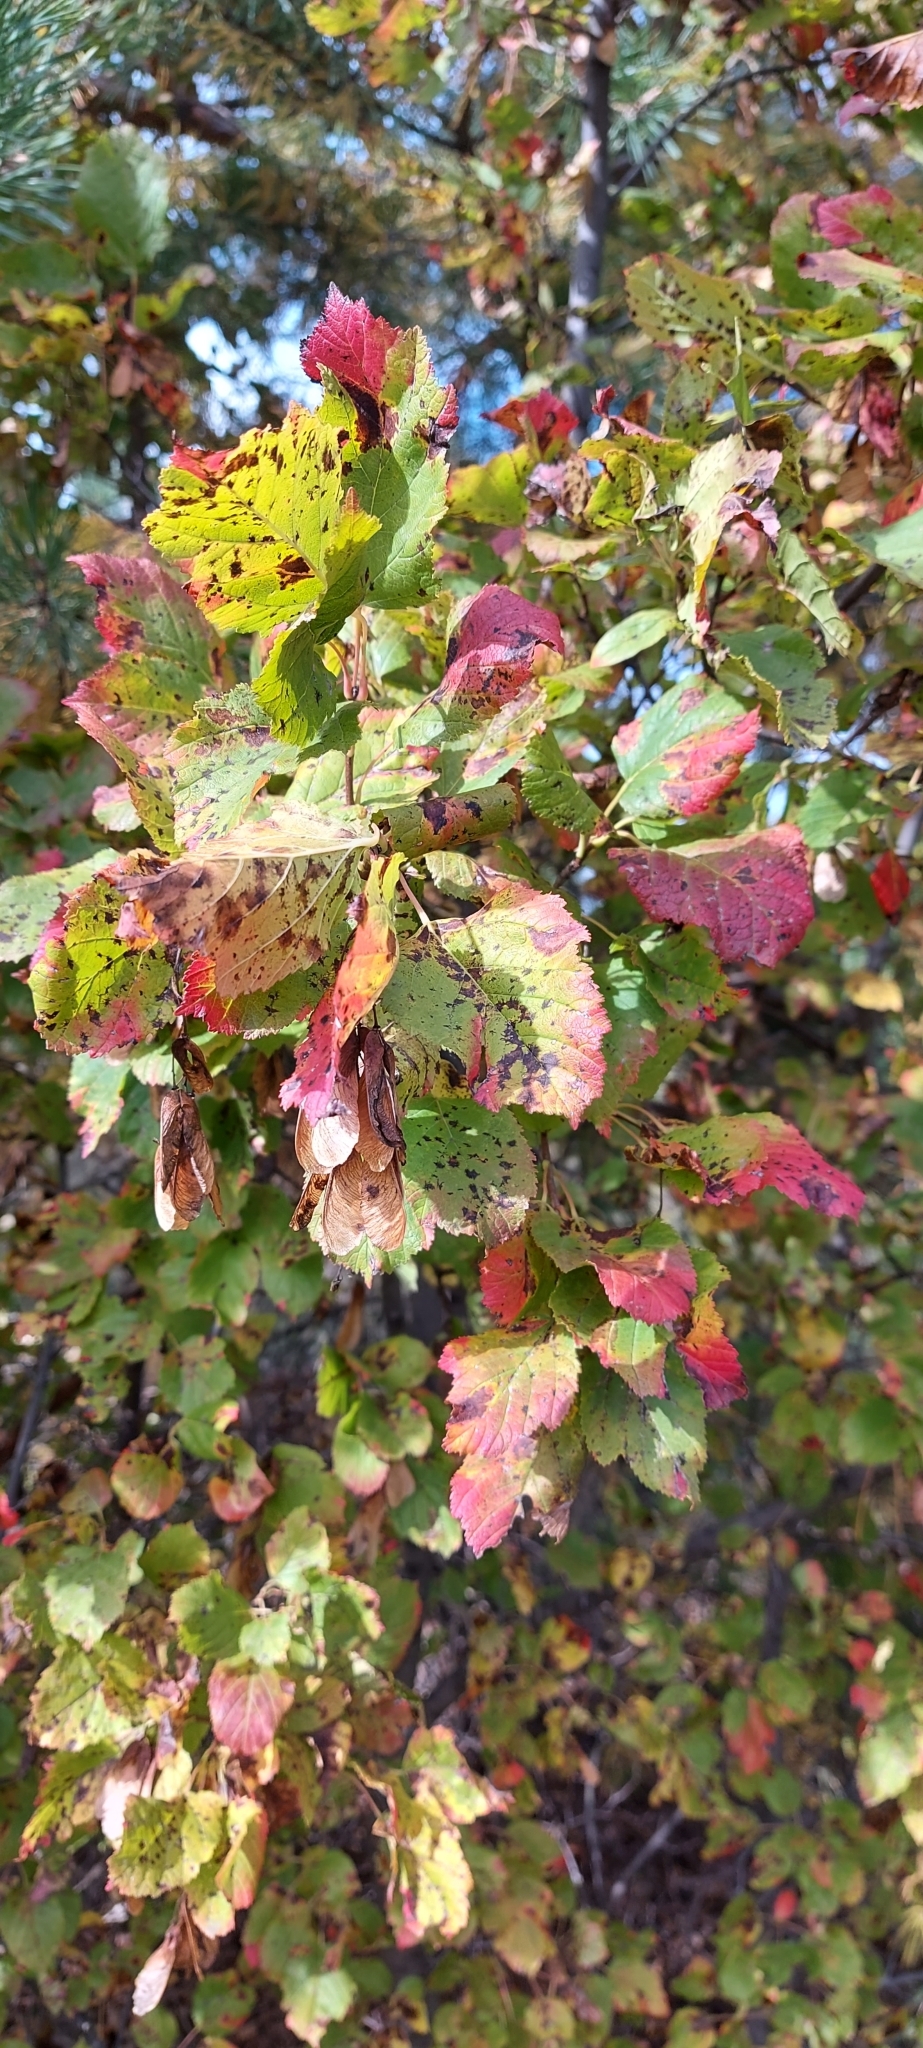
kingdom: Plantae
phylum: Tracheophyta
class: Magnoliopsida
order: Sapindales
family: Sapindaceae
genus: Acer
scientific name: Acer tataricum
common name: Tartar maple
